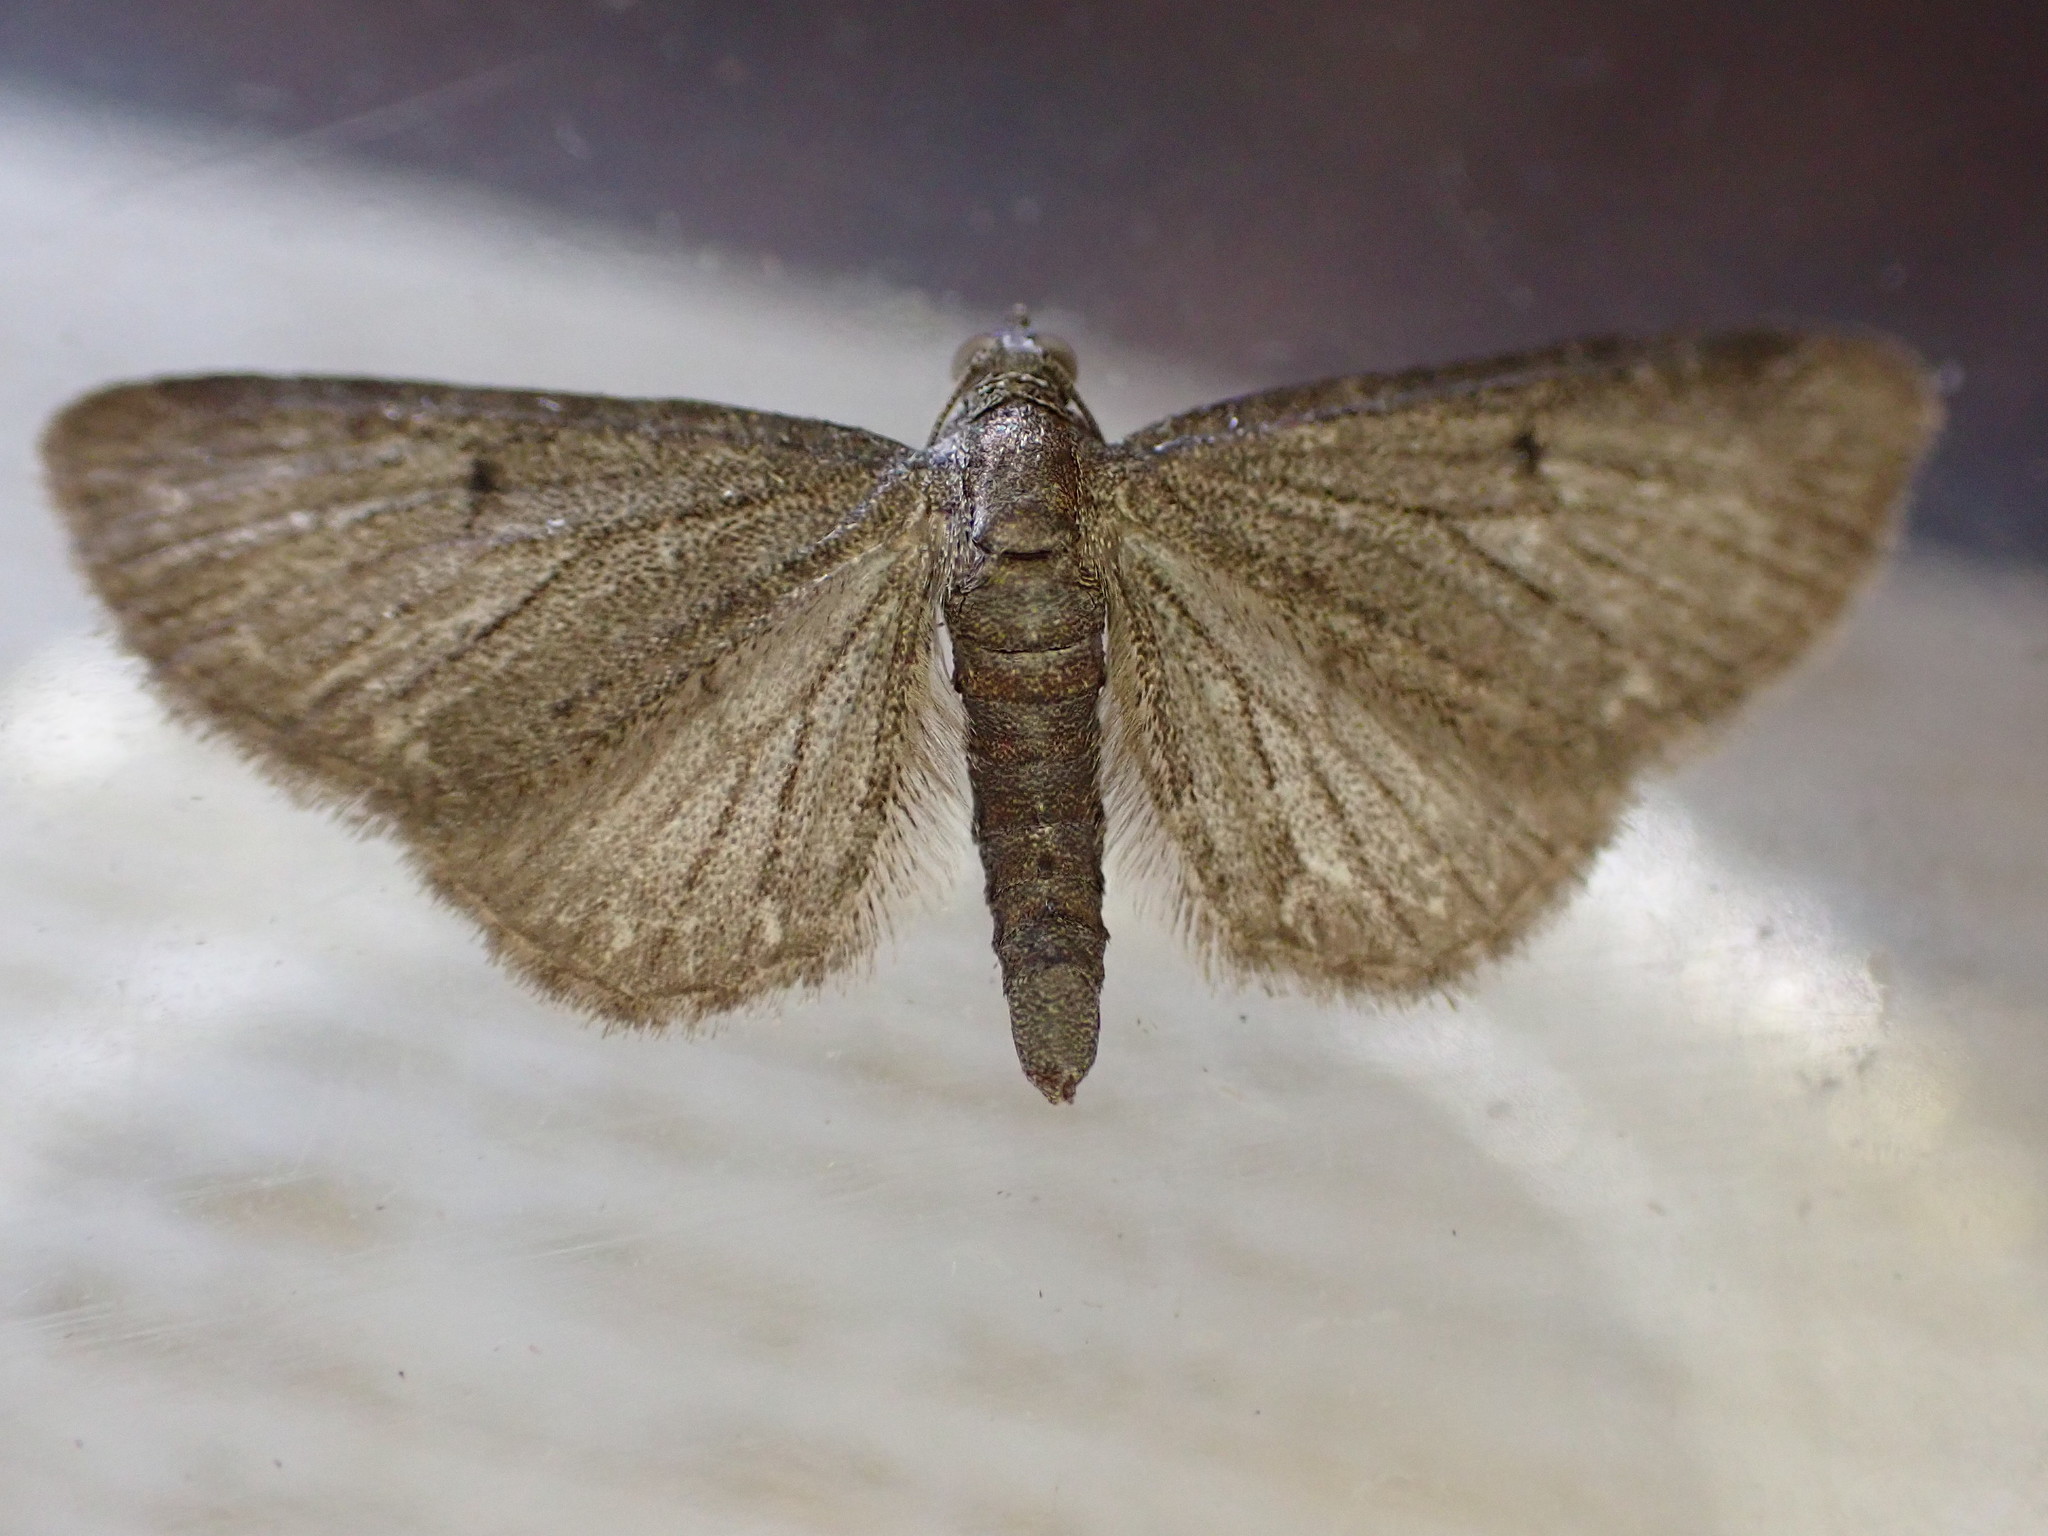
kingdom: Animalia
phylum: Arthropoda
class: Insecta
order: Lepidoptera
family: Geometridae
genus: Eupithecia
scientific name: Eupithecia vulgata
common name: Common pug
